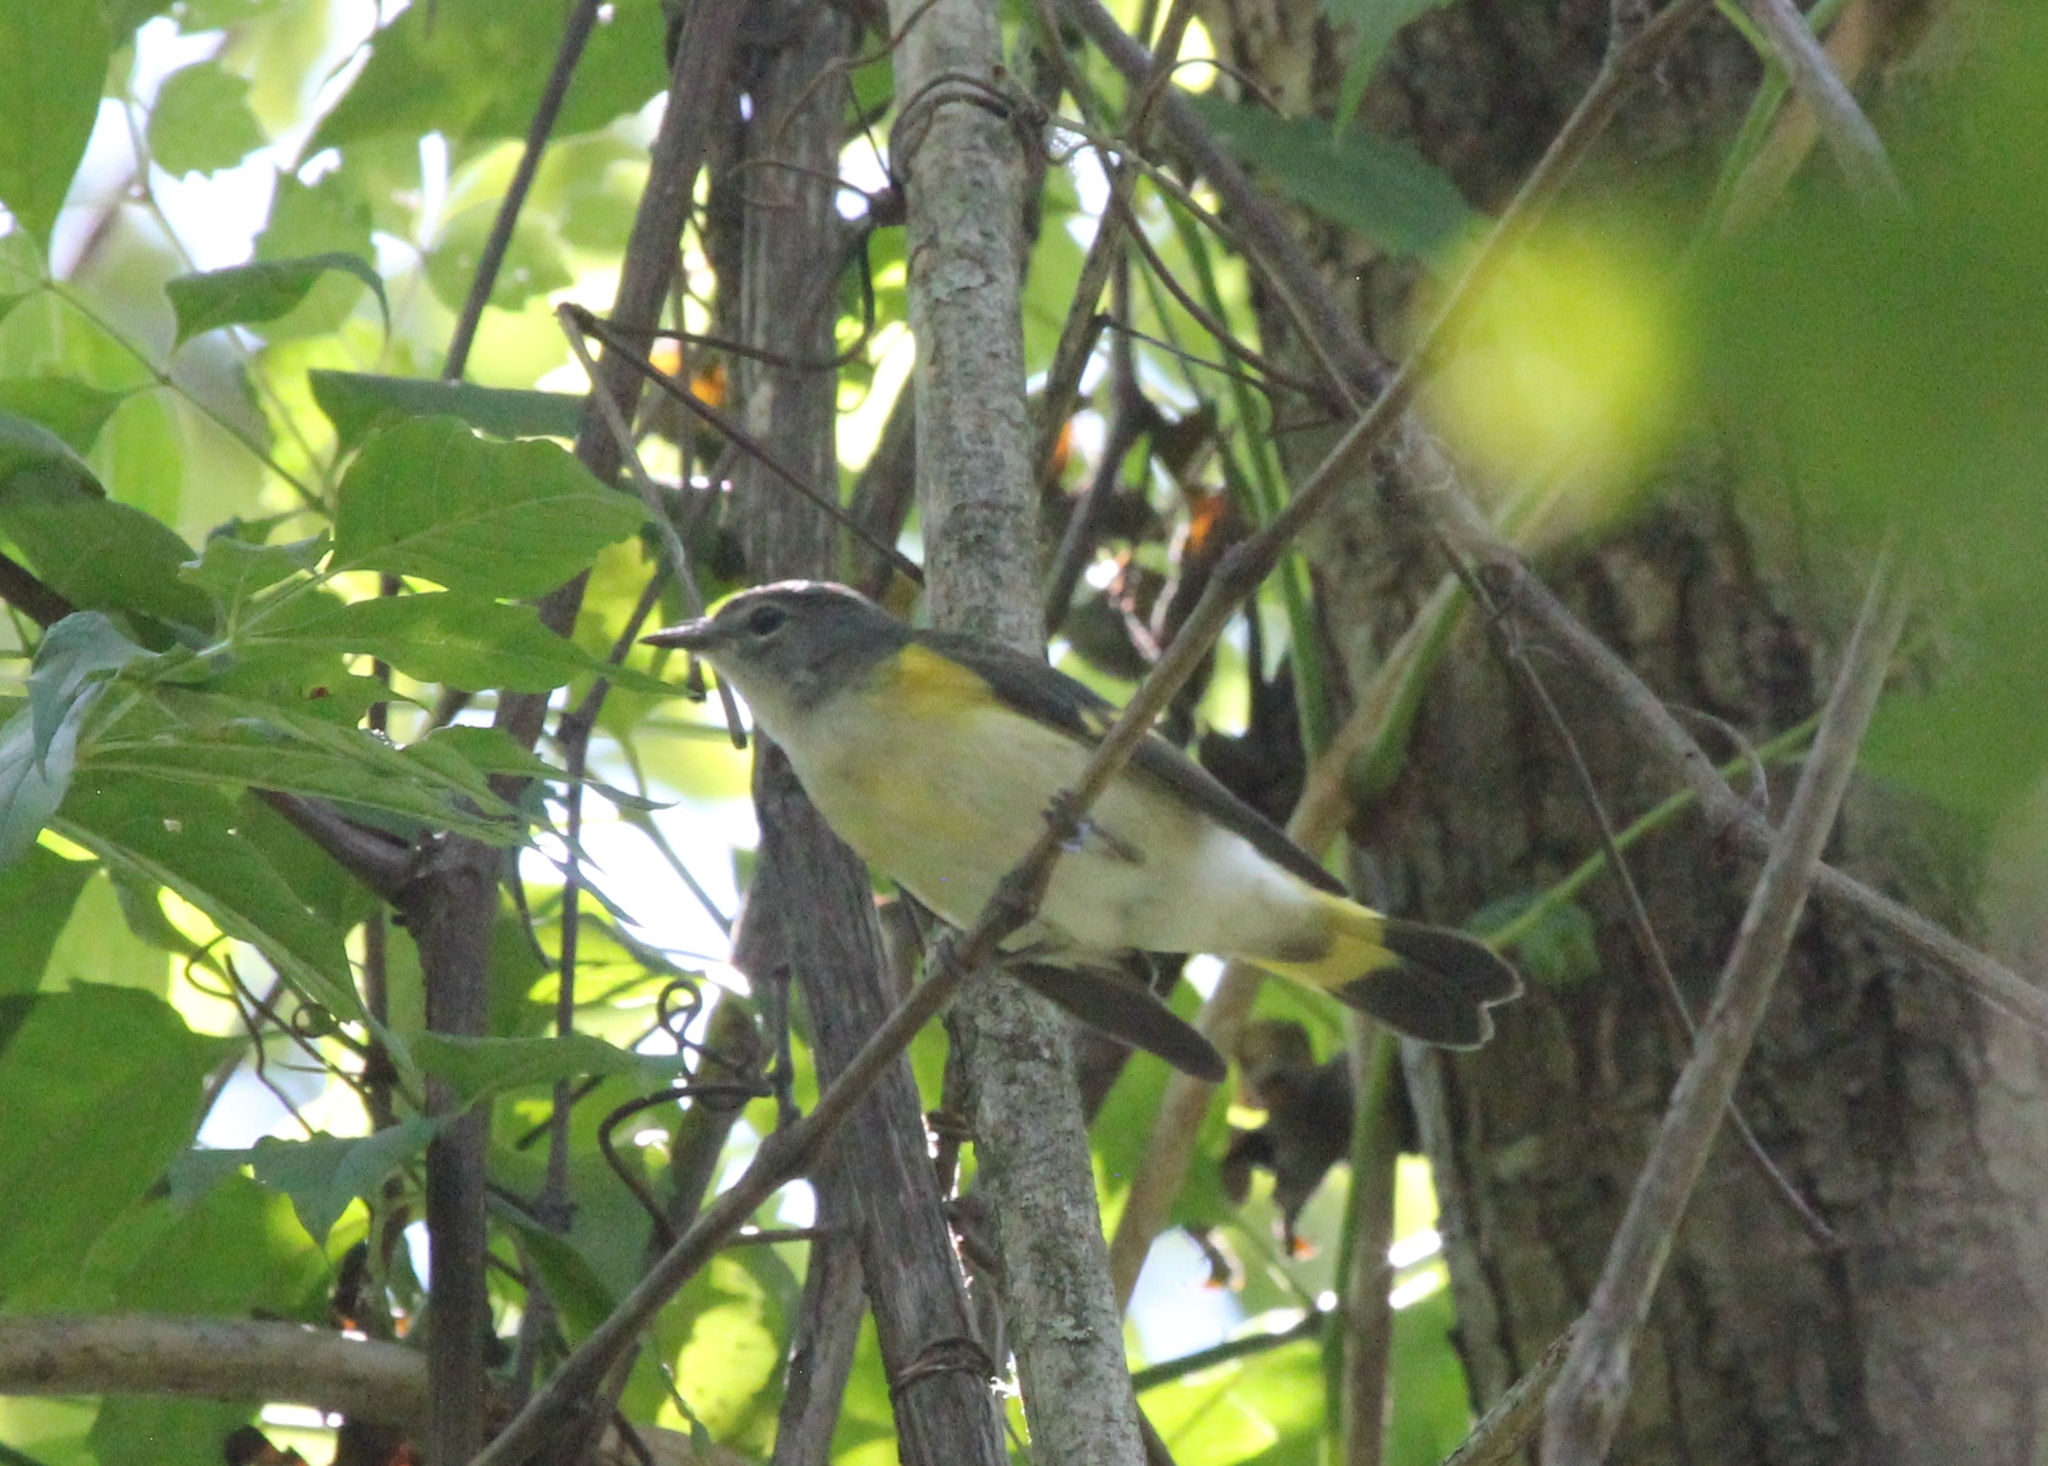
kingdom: Animalia
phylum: Chordata
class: Aves
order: Passeriformes
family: Parulidae
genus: Setophaga
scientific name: Setophaga ruticilla
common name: American redstart
